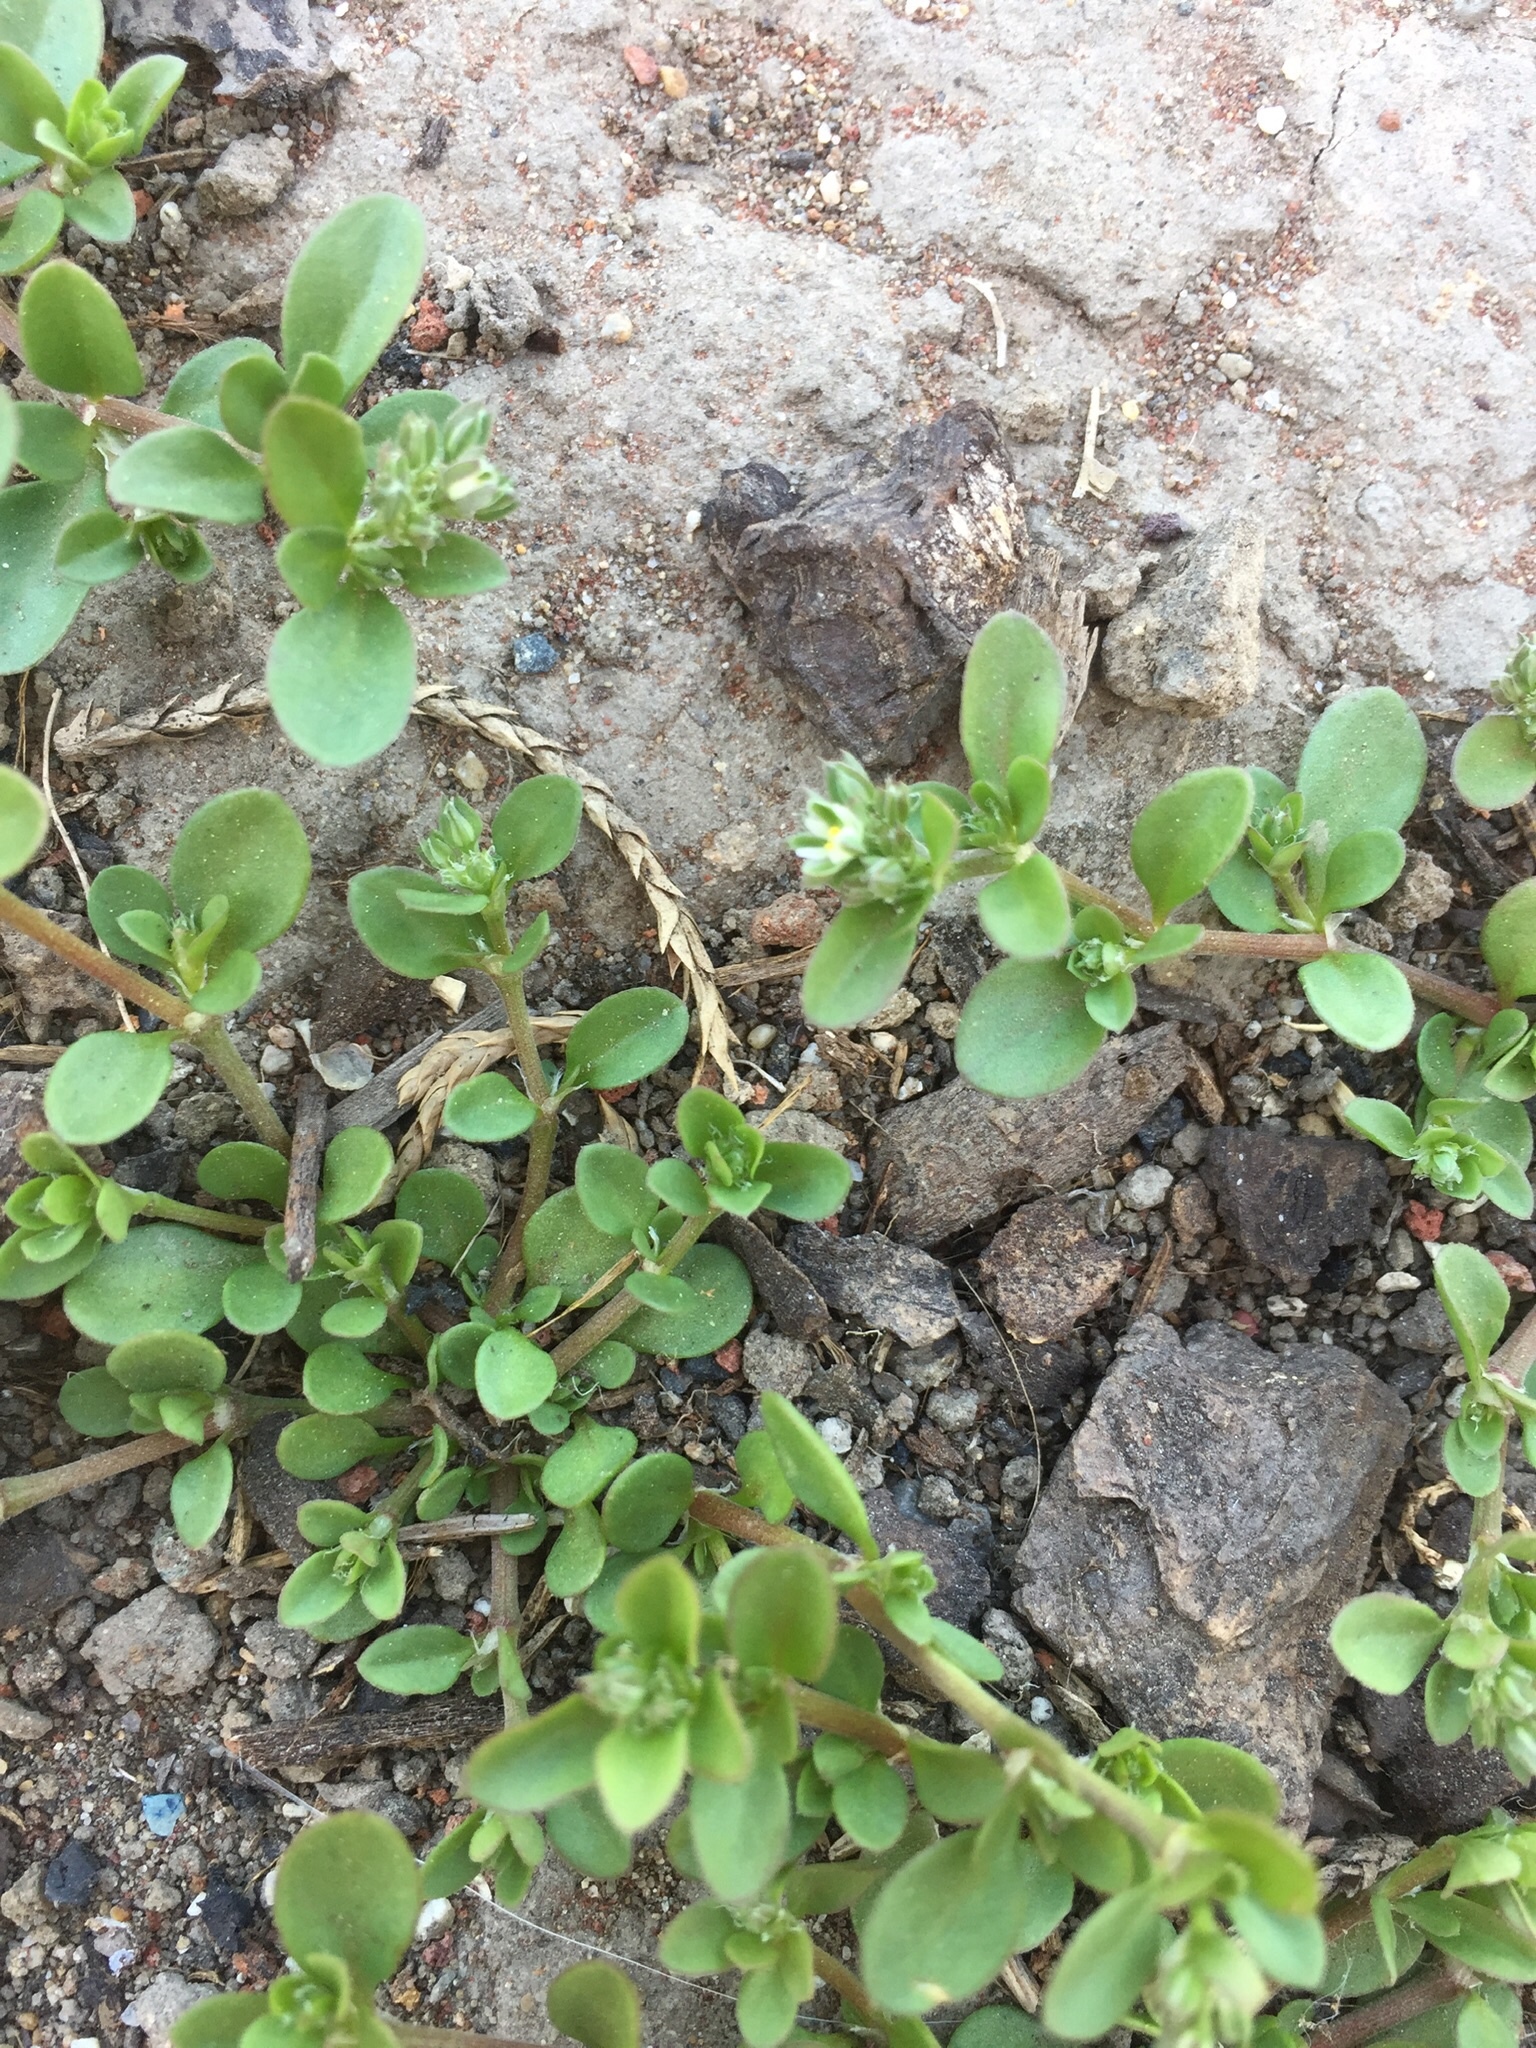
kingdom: Plantae
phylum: Tracheophyta
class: Magnoliopsida
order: Caryophyllales
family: Caryophyllaceae
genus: Polycarpon
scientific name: Polycarpon tetraphyllum
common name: Four-leaved all-seed
